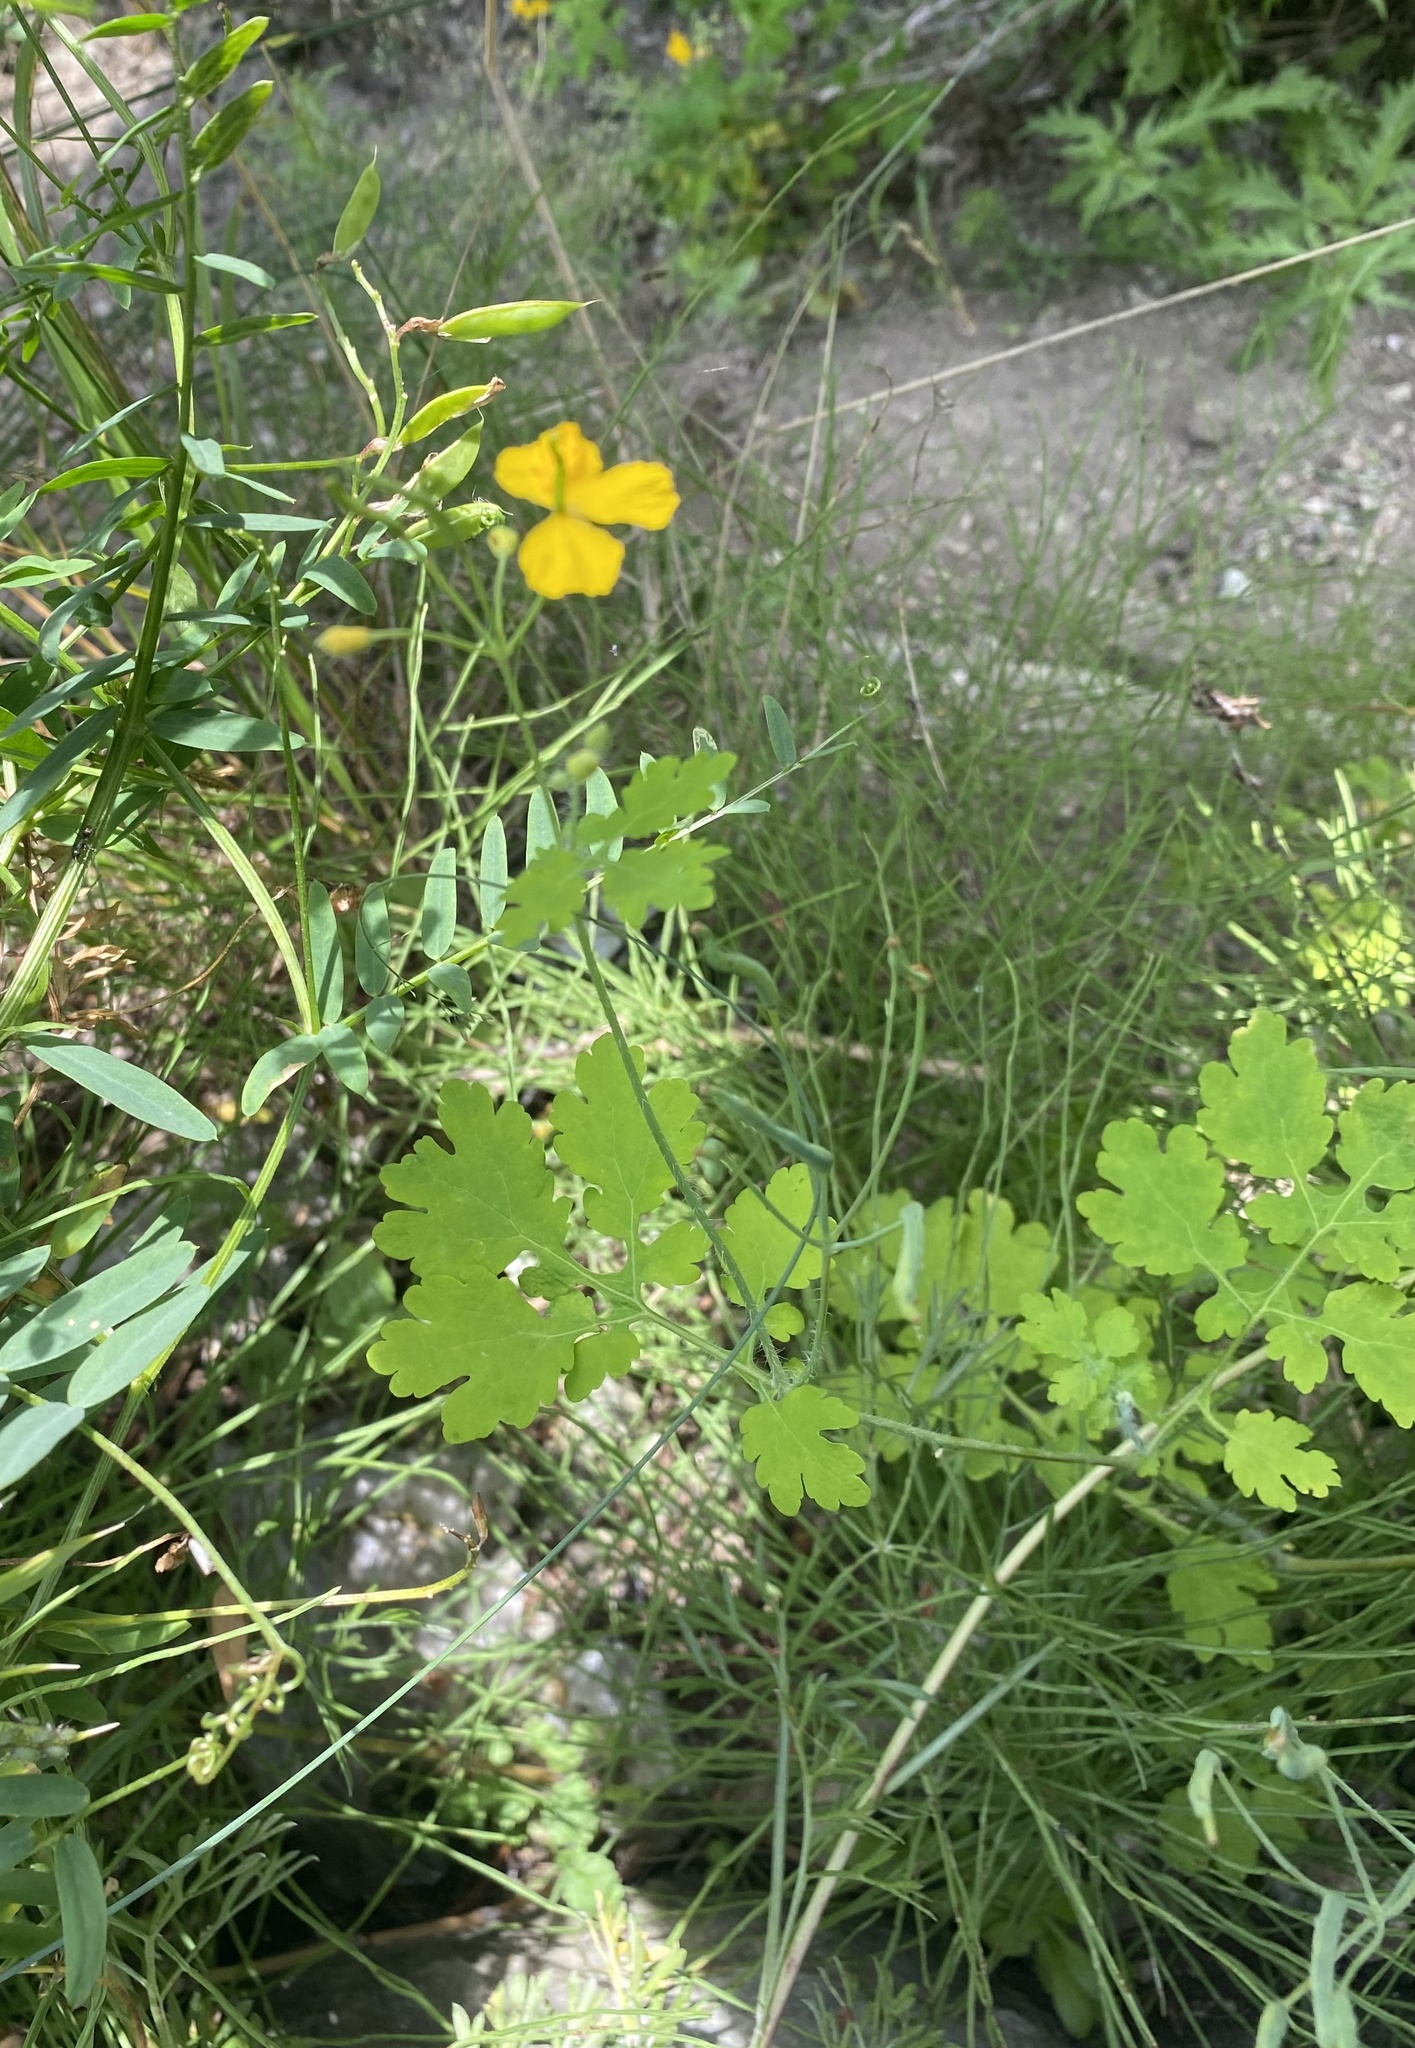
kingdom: Plantae
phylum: Tracheophyta
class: Magnoliopsida
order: Ranunculales
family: Papaveraceae
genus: Chelidonium
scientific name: Chelidonium majus
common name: Greater celandine
